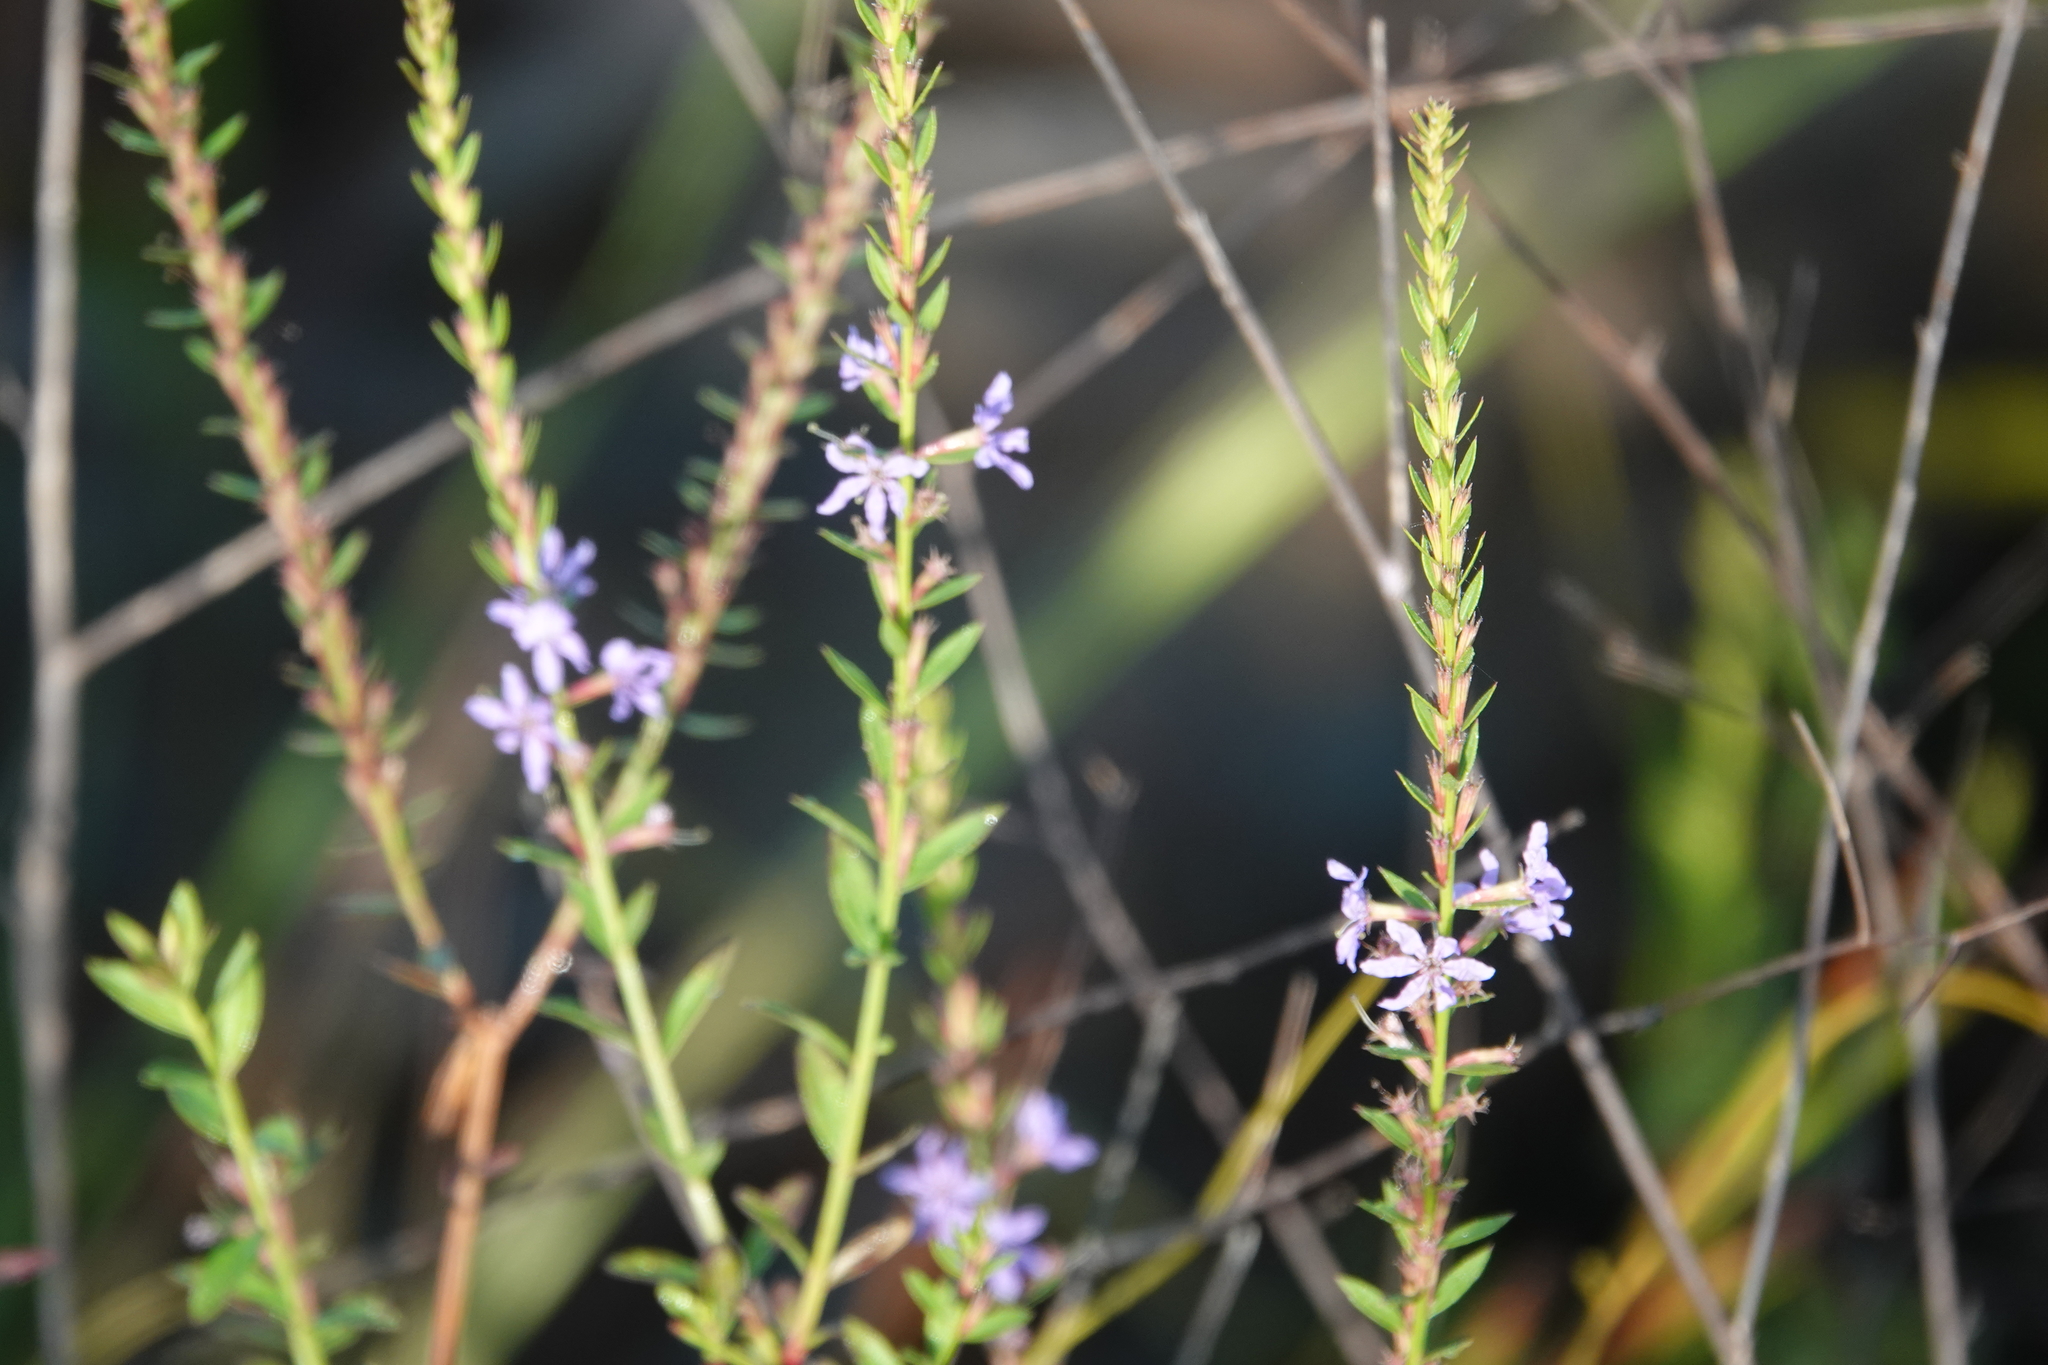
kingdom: Plantae
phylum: Tracheophyta
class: Magnoliopsida
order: Myrtales
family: Lythraceae
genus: Lythrum
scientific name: Lythrum alatum
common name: Winged loosestrife
